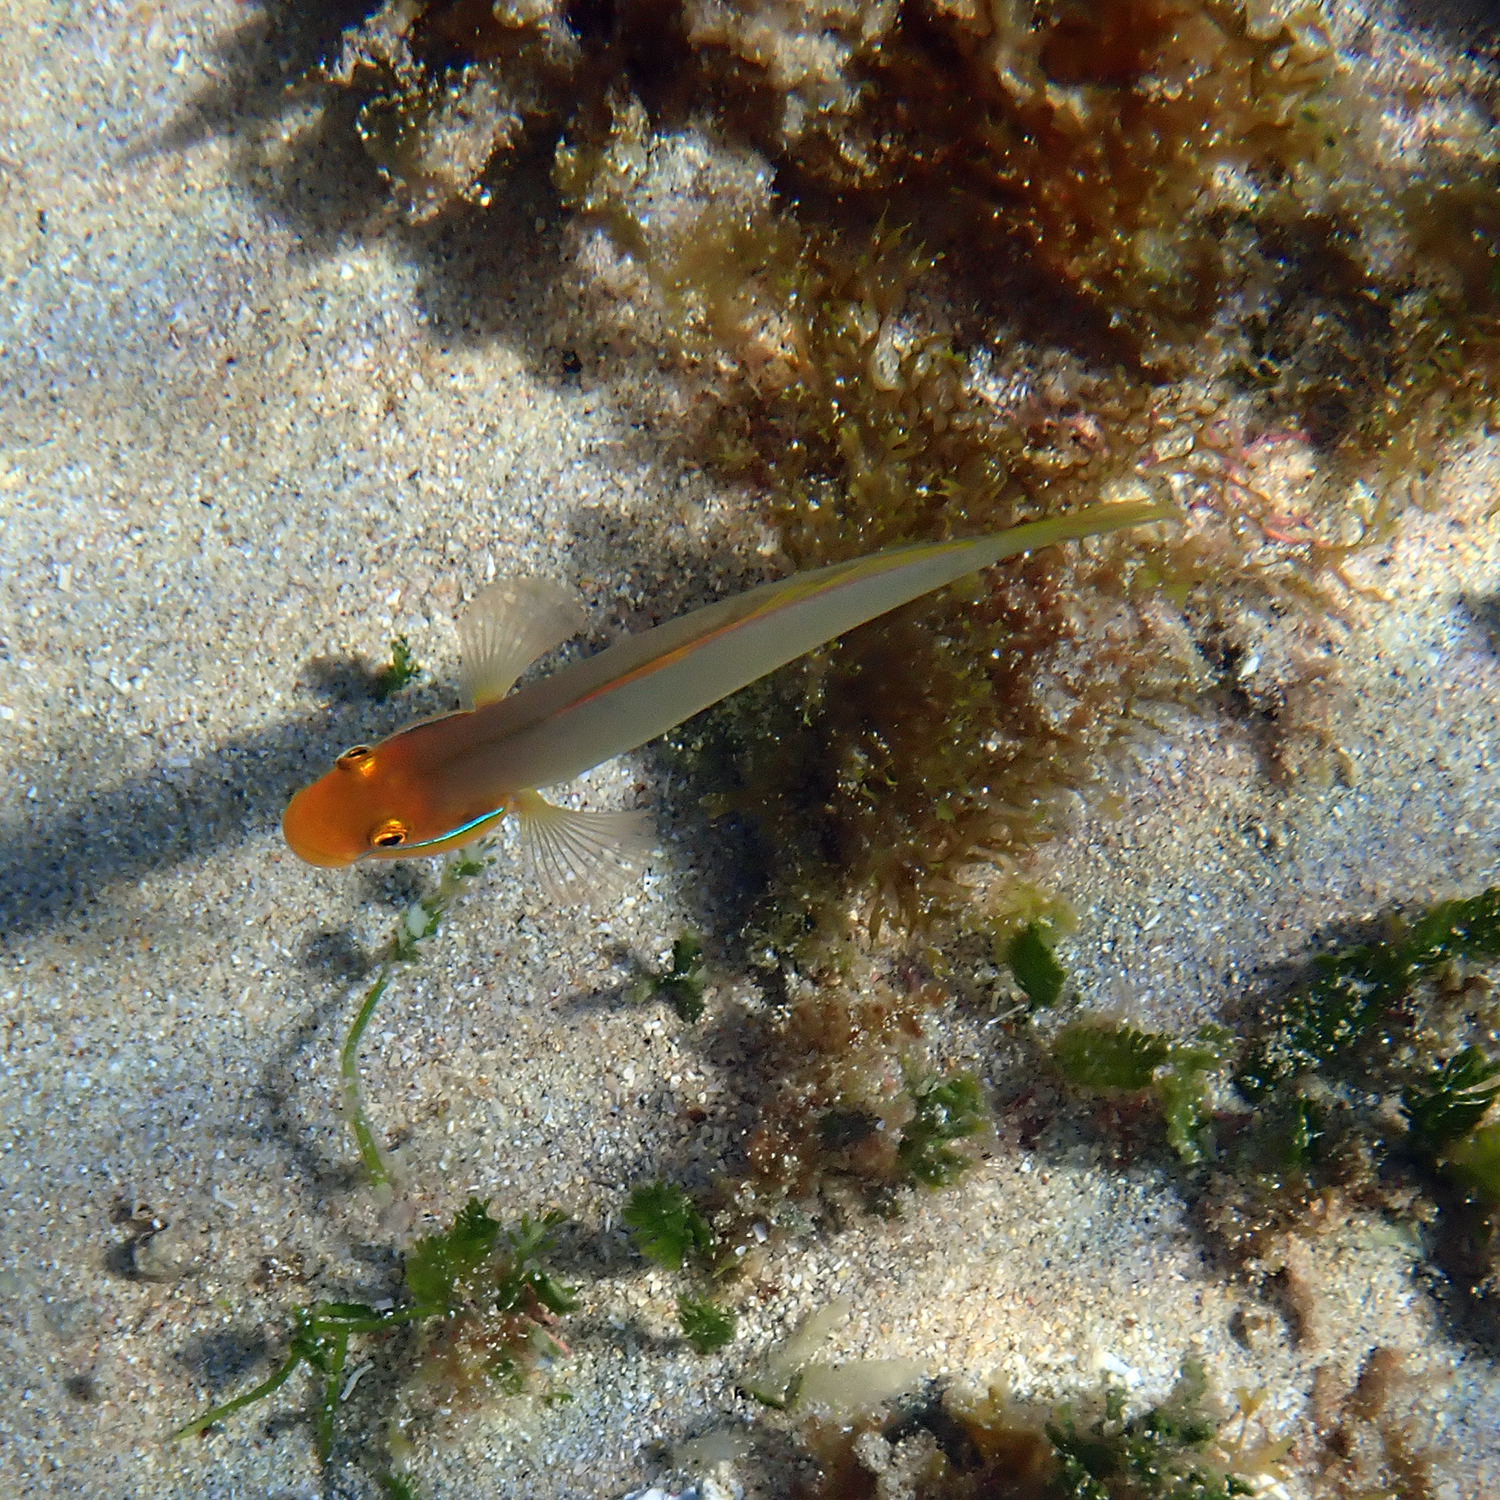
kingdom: Animalia
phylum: Chordata
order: Perciformes
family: Gobiidae
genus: Valenciennea
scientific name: Valenciennea strigata
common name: Blueband goby
